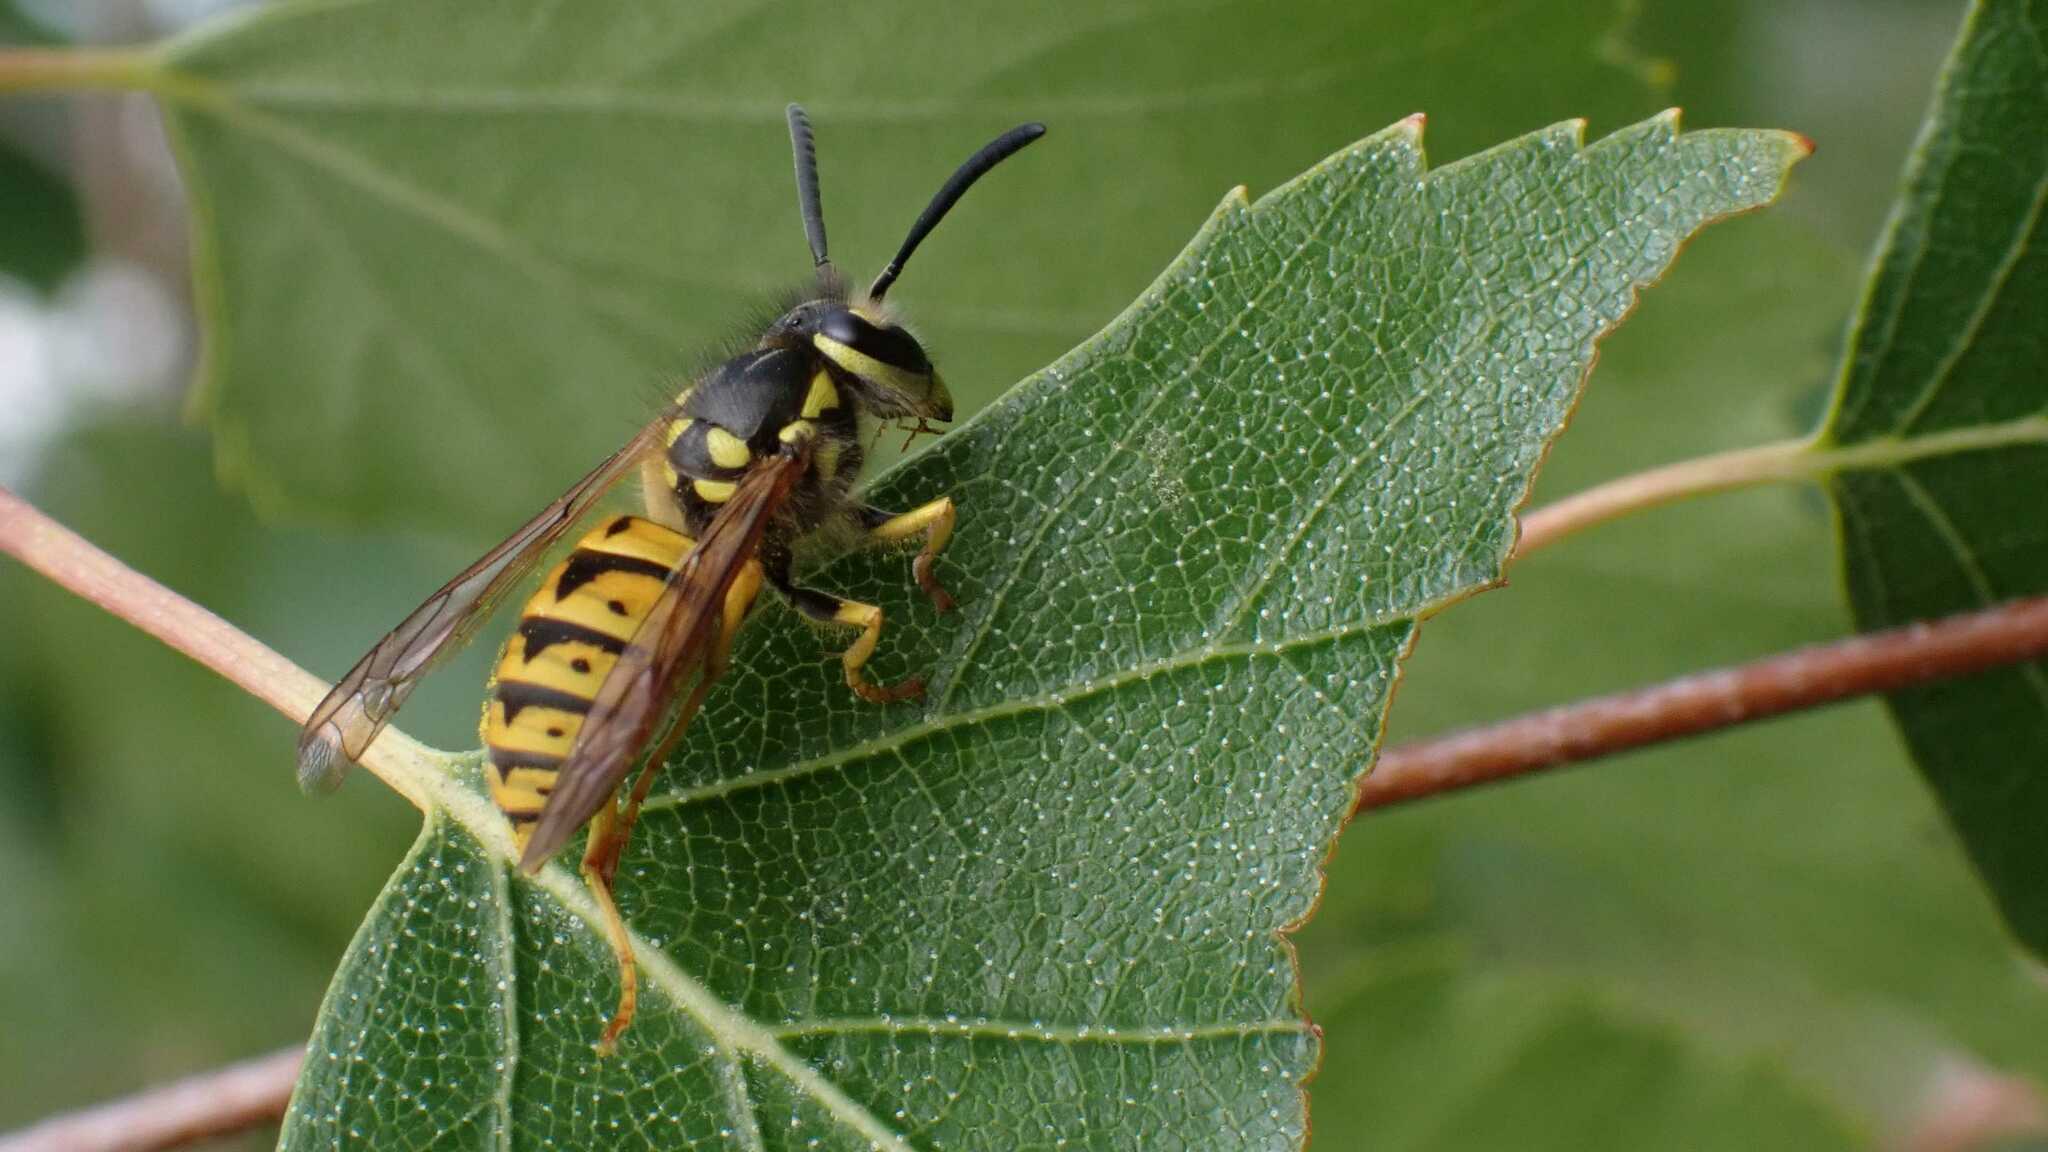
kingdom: Animalia
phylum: Arthropoda
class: Insecta
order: Hymenoptera
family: Vespidae
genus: Vespula
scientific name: Vespula germanica
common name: German wasp
